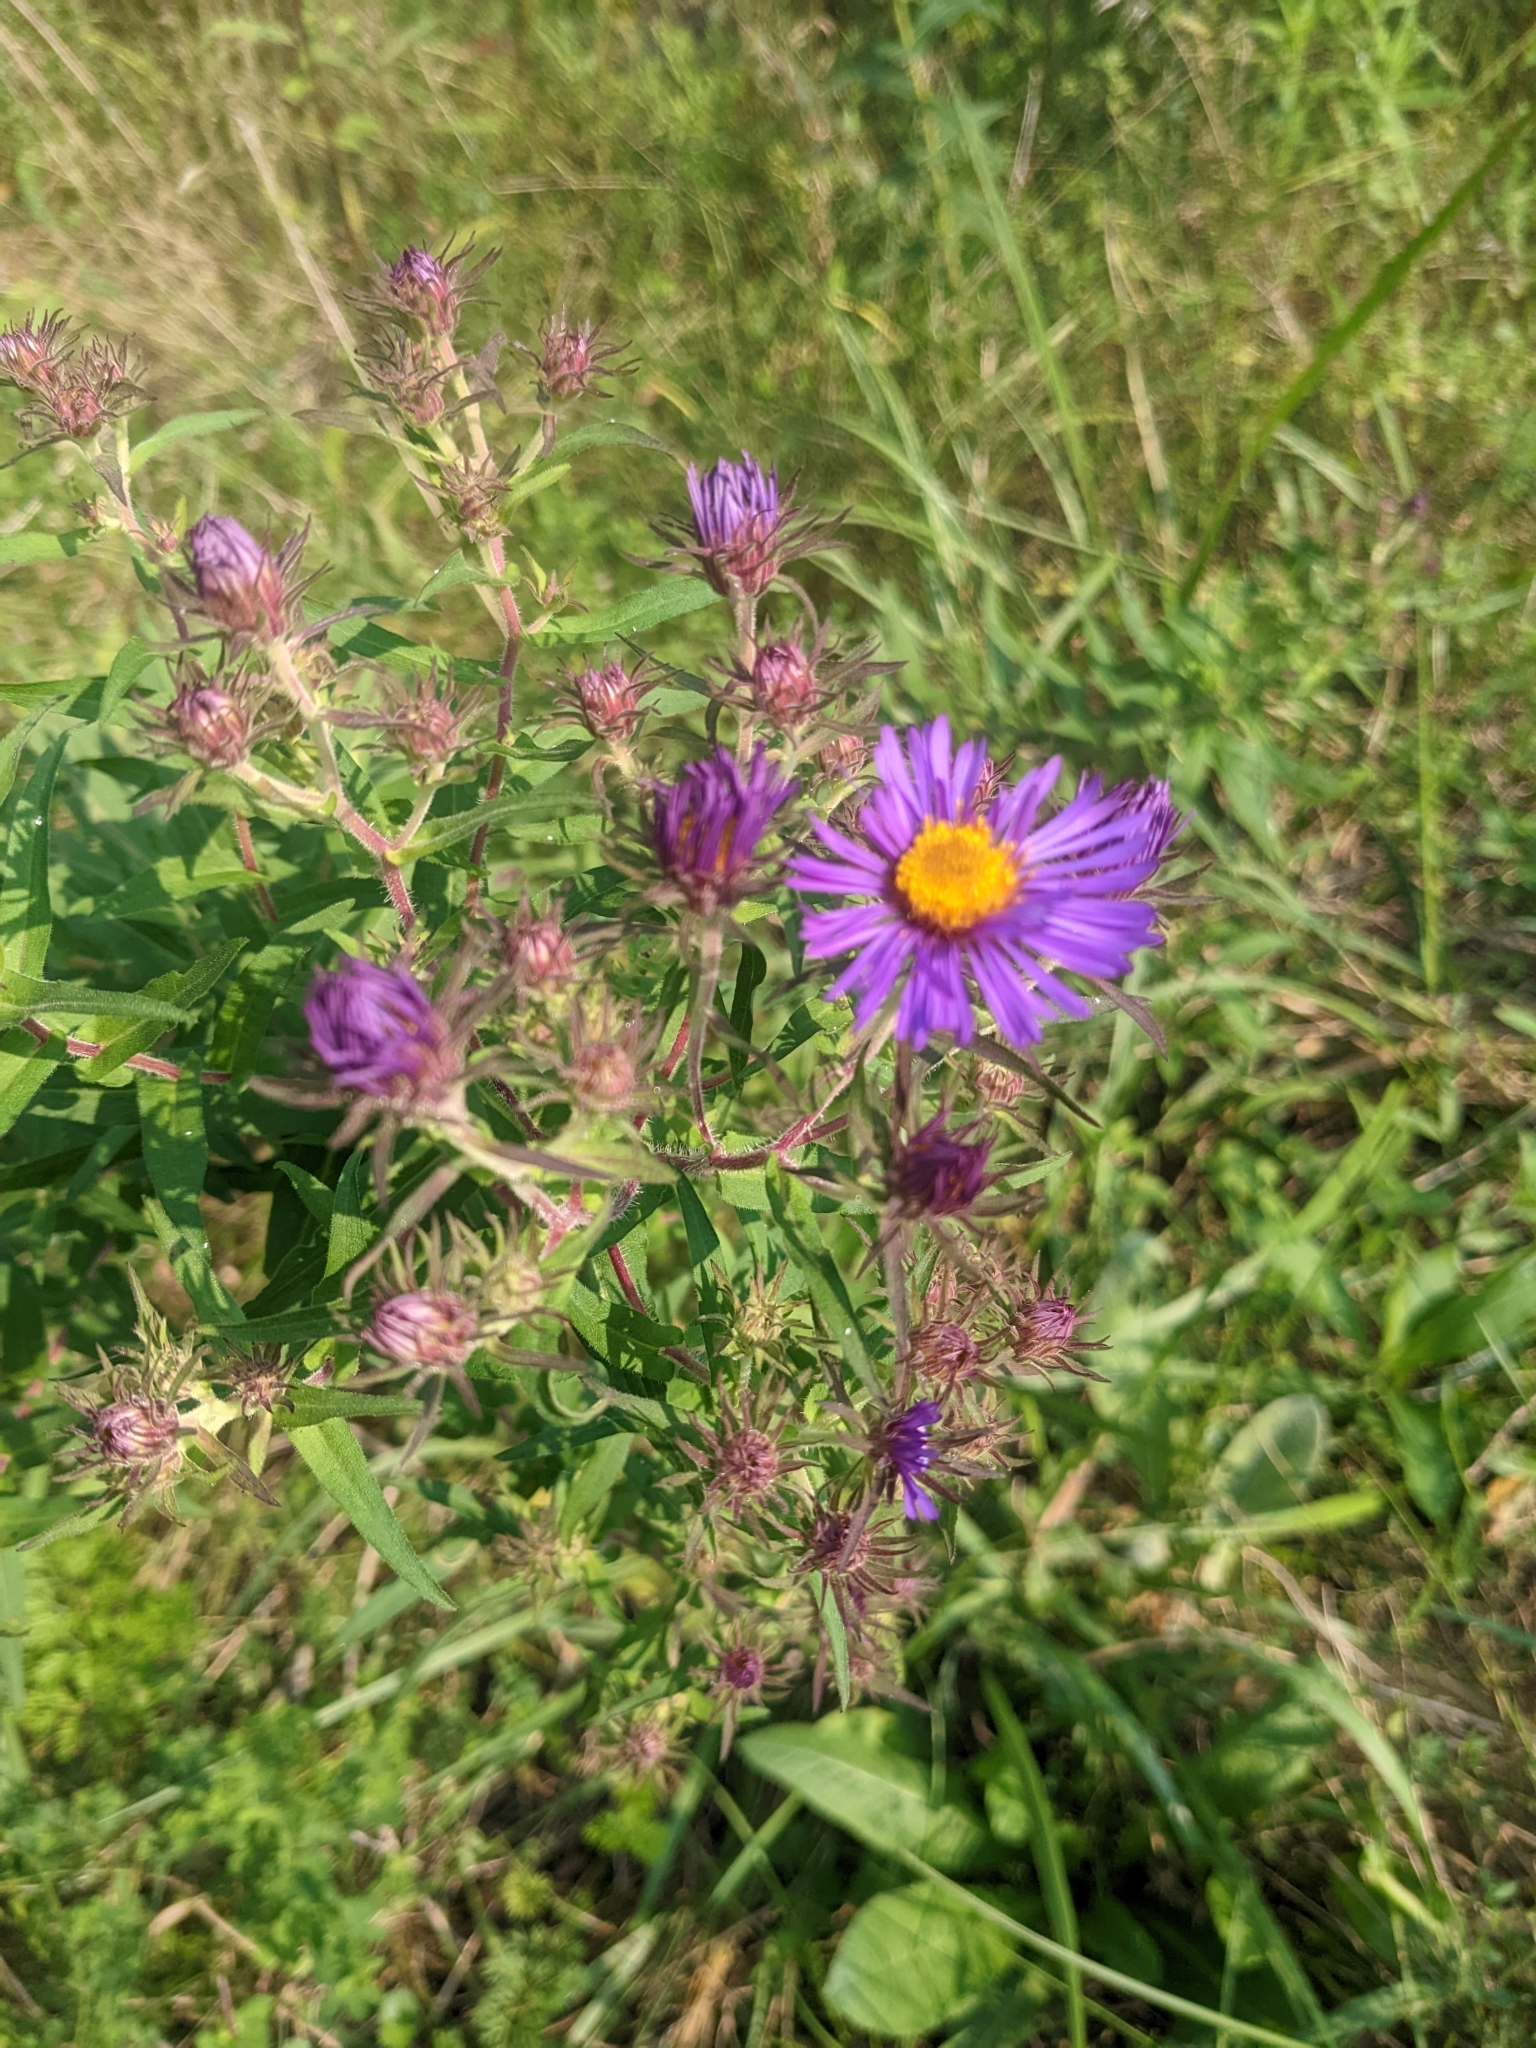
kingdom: Plantae
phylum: Tracheophyta
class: Magnoliopsida
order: Asterales
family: Asteraceae
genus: Symphyotrichum
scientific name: Symphyotrichum novae-angliae
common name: Michaelmas daisy
